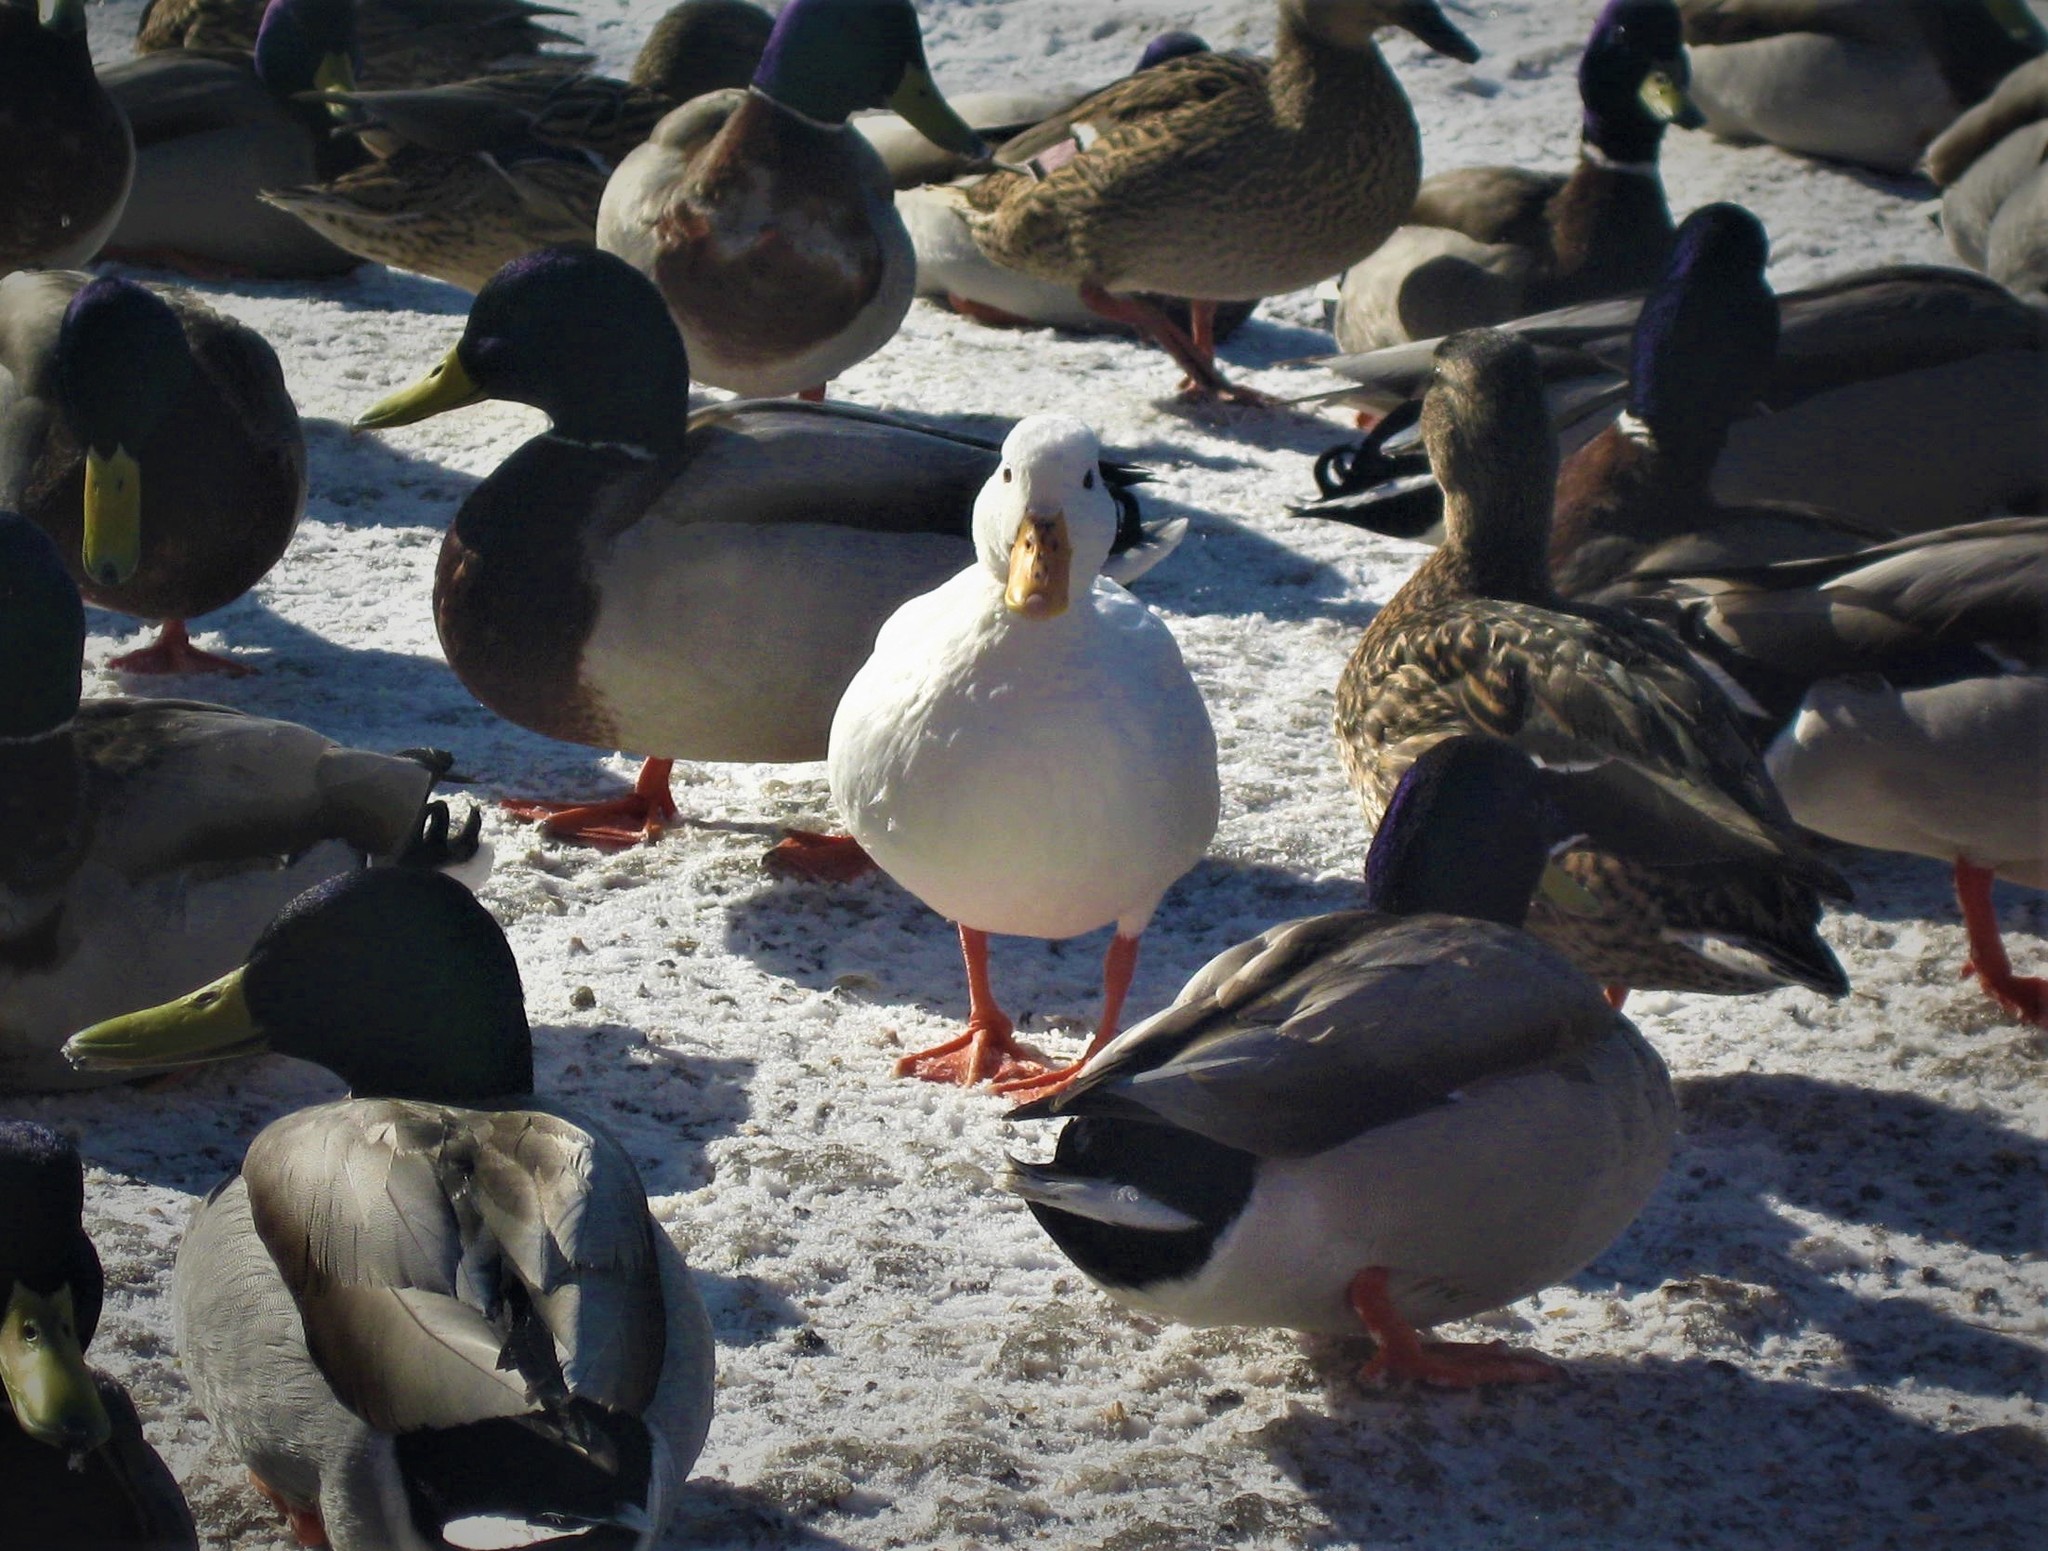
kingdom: Animalia
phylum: Chordata
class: Aves
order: Anseriformes
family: Anatidae
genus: Anas
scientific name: Anas platyrhynchos
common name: Mallard
